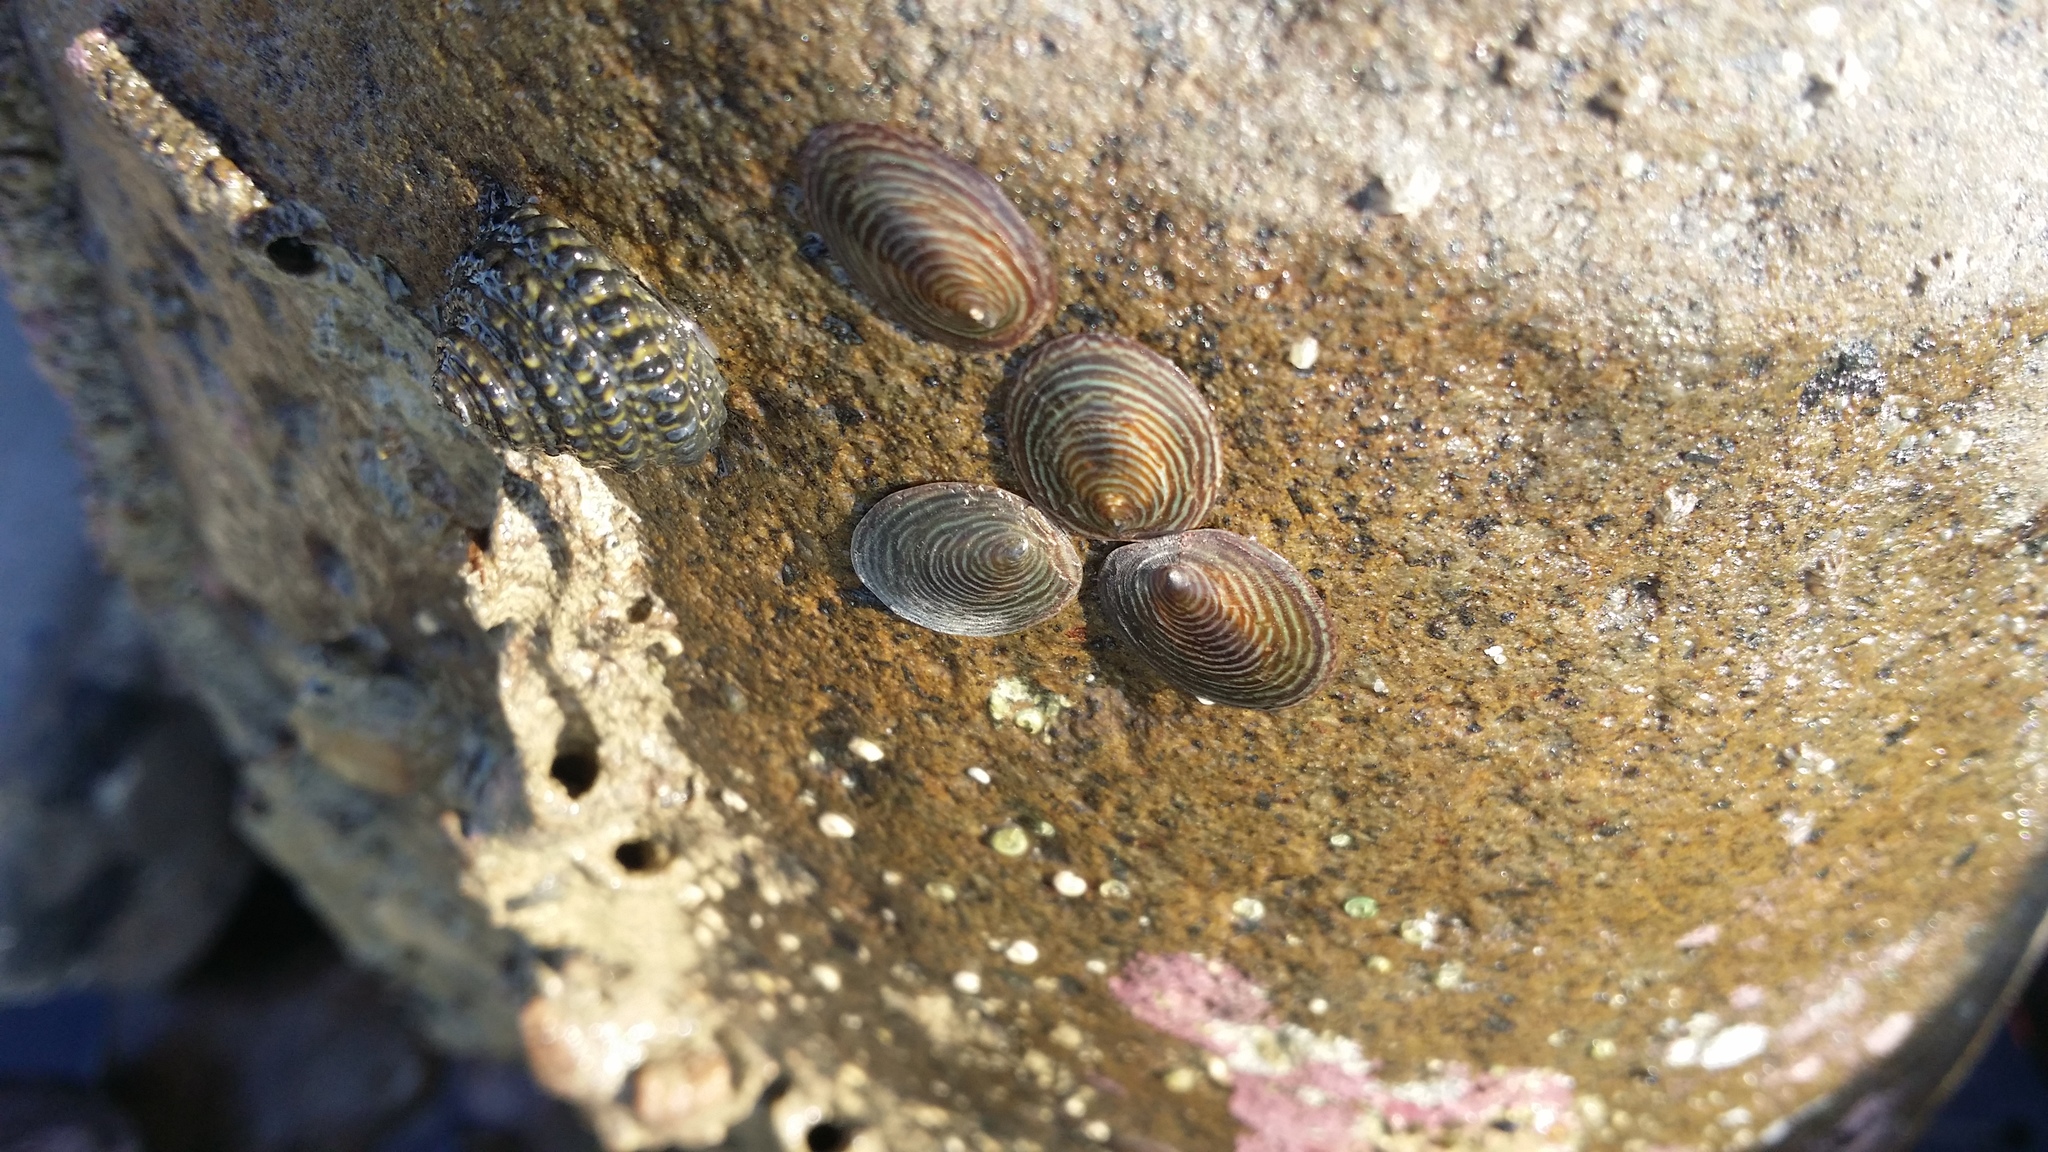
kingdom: Animalia
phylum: Mollusca
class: Gastropoda
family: Lottiidae
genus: Atalacmea
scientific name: Atalacmea fragilis
